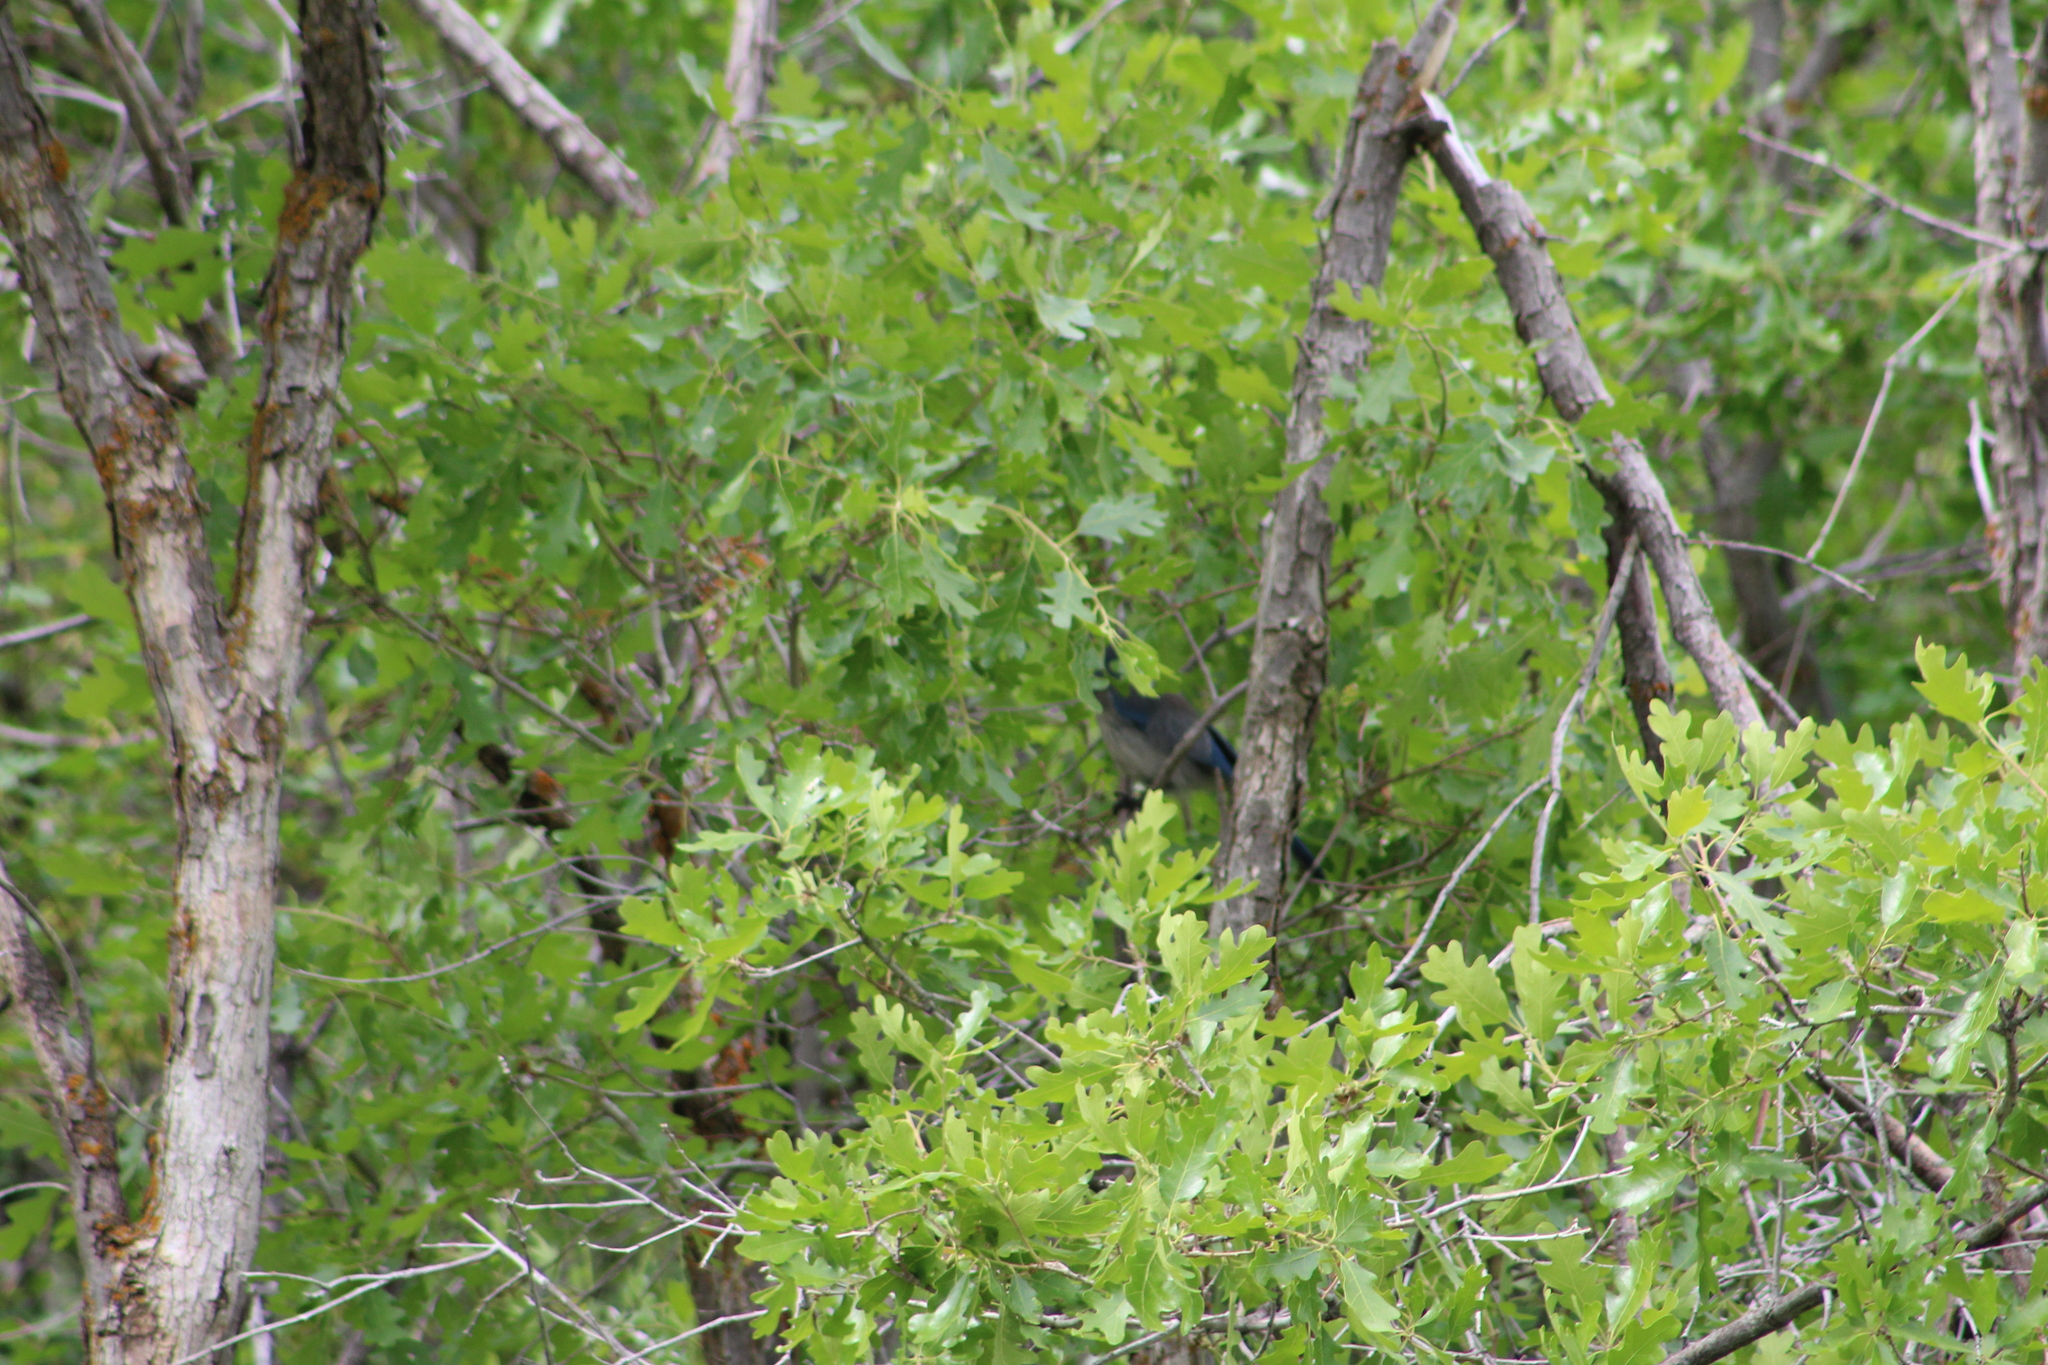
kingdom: Animalia
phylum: Chordata
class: Aves
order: Passeriformes
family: Corvidae
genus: Aphelocoma
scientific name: Aphelocoma woodhouseii
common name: Woodhouse's scrub-jay
